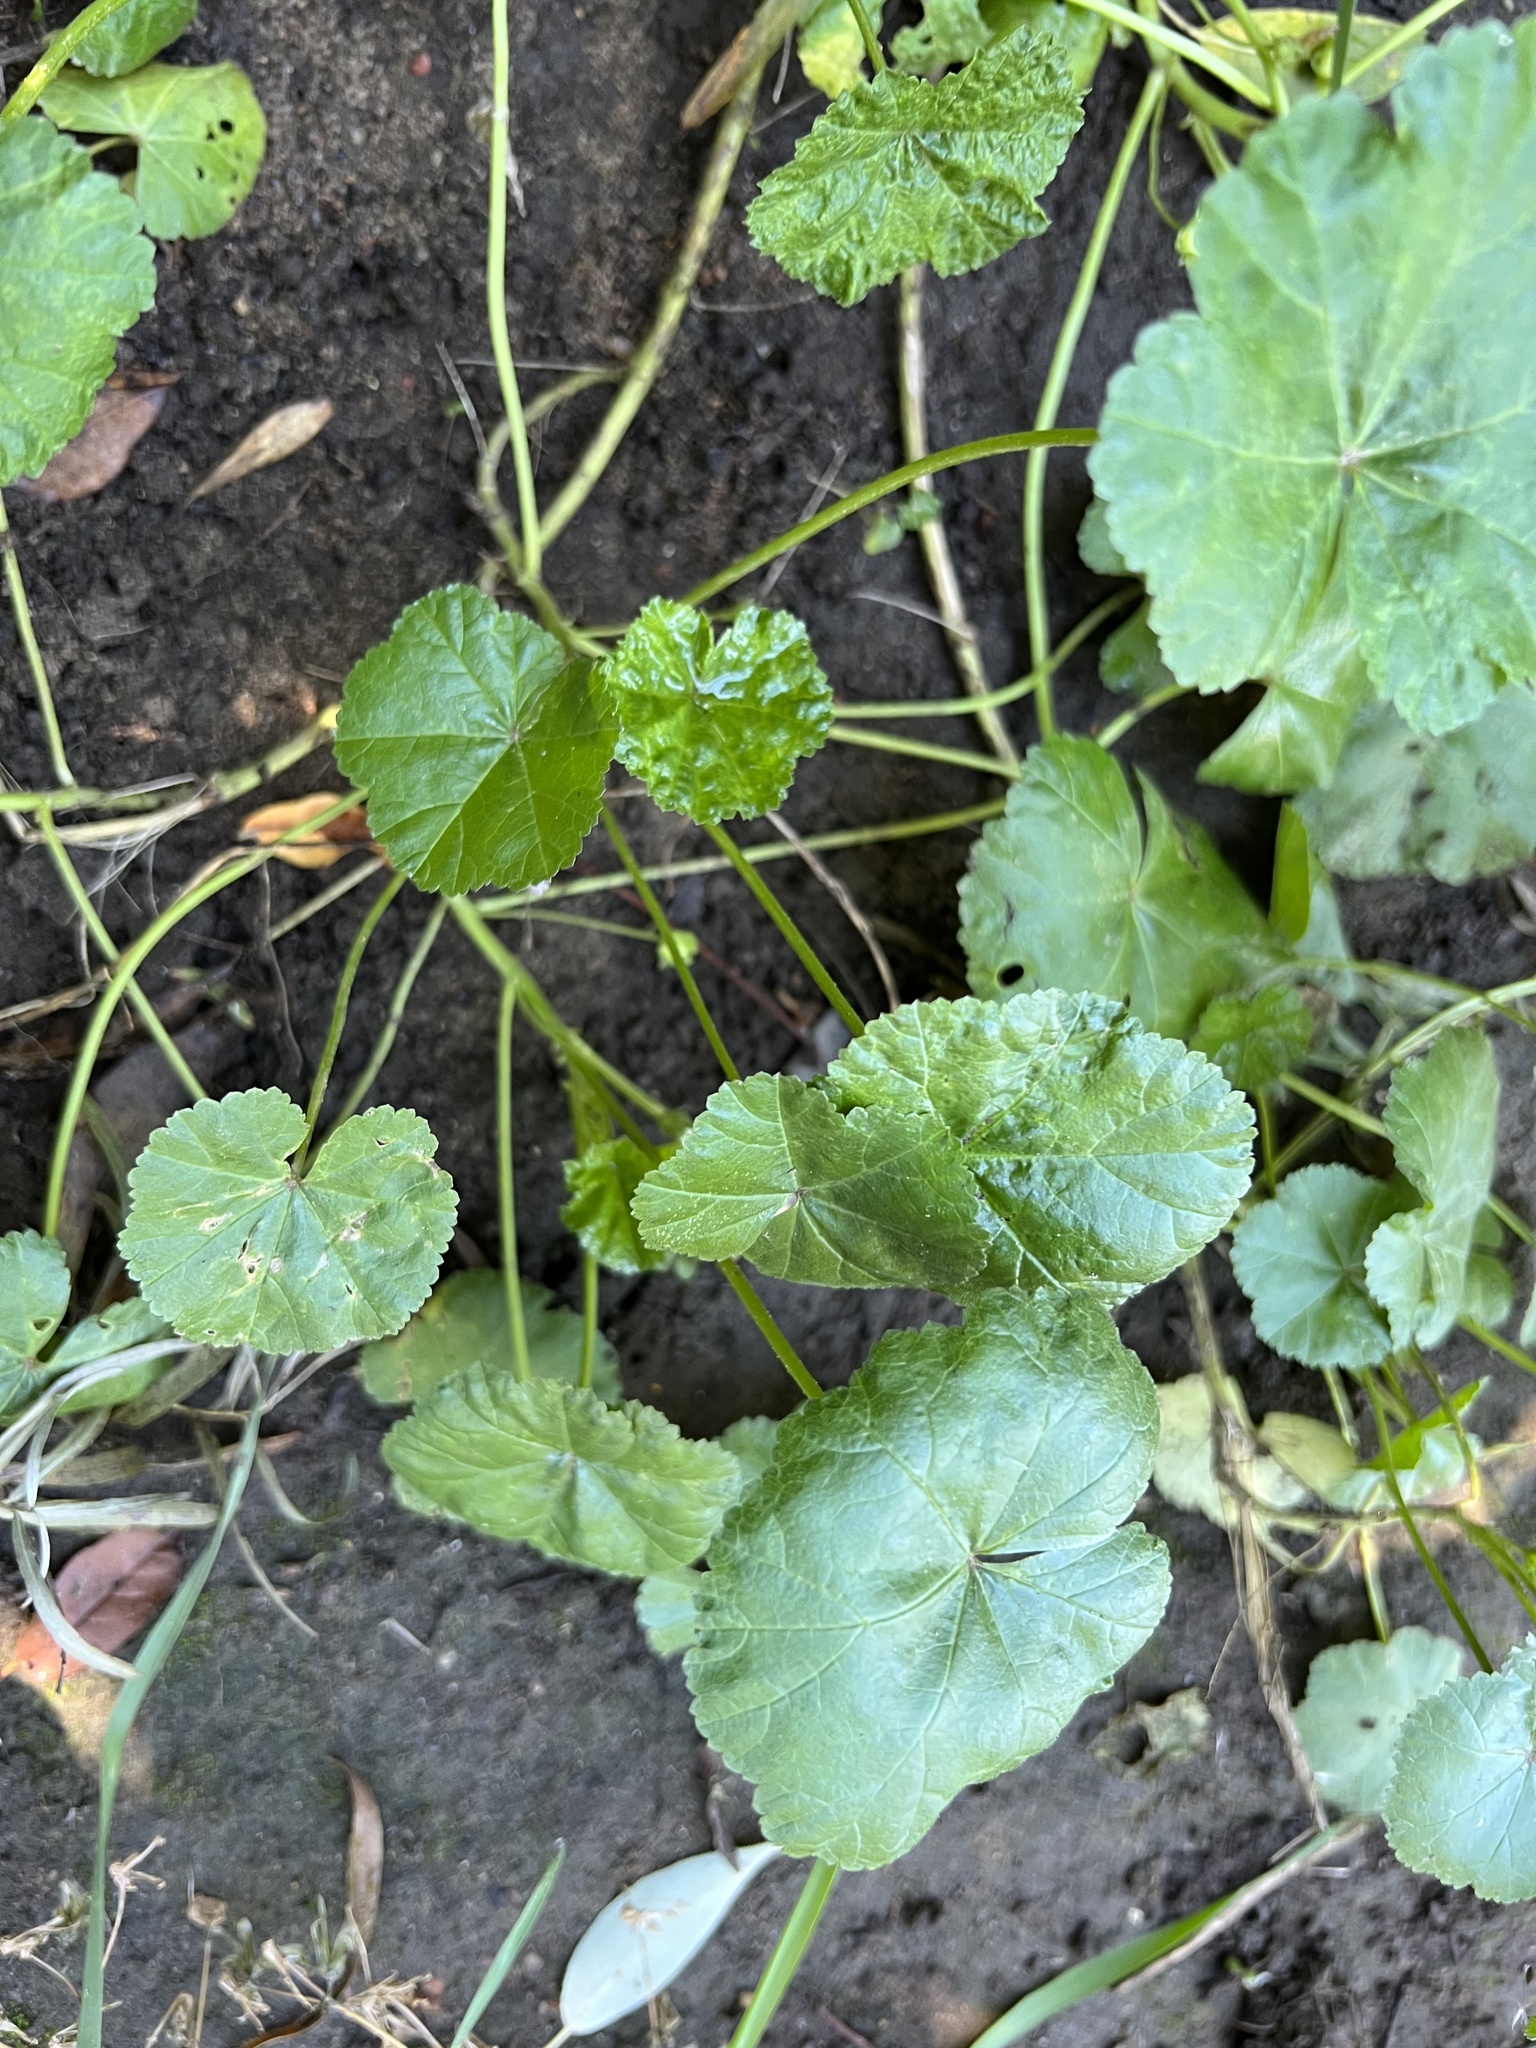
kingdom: Plantae
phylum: Tracheophyta
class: Magnoliopsida
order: Malvales
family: Malvaceae
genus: Malva
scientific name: Malva neglecta
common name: Common mallow
